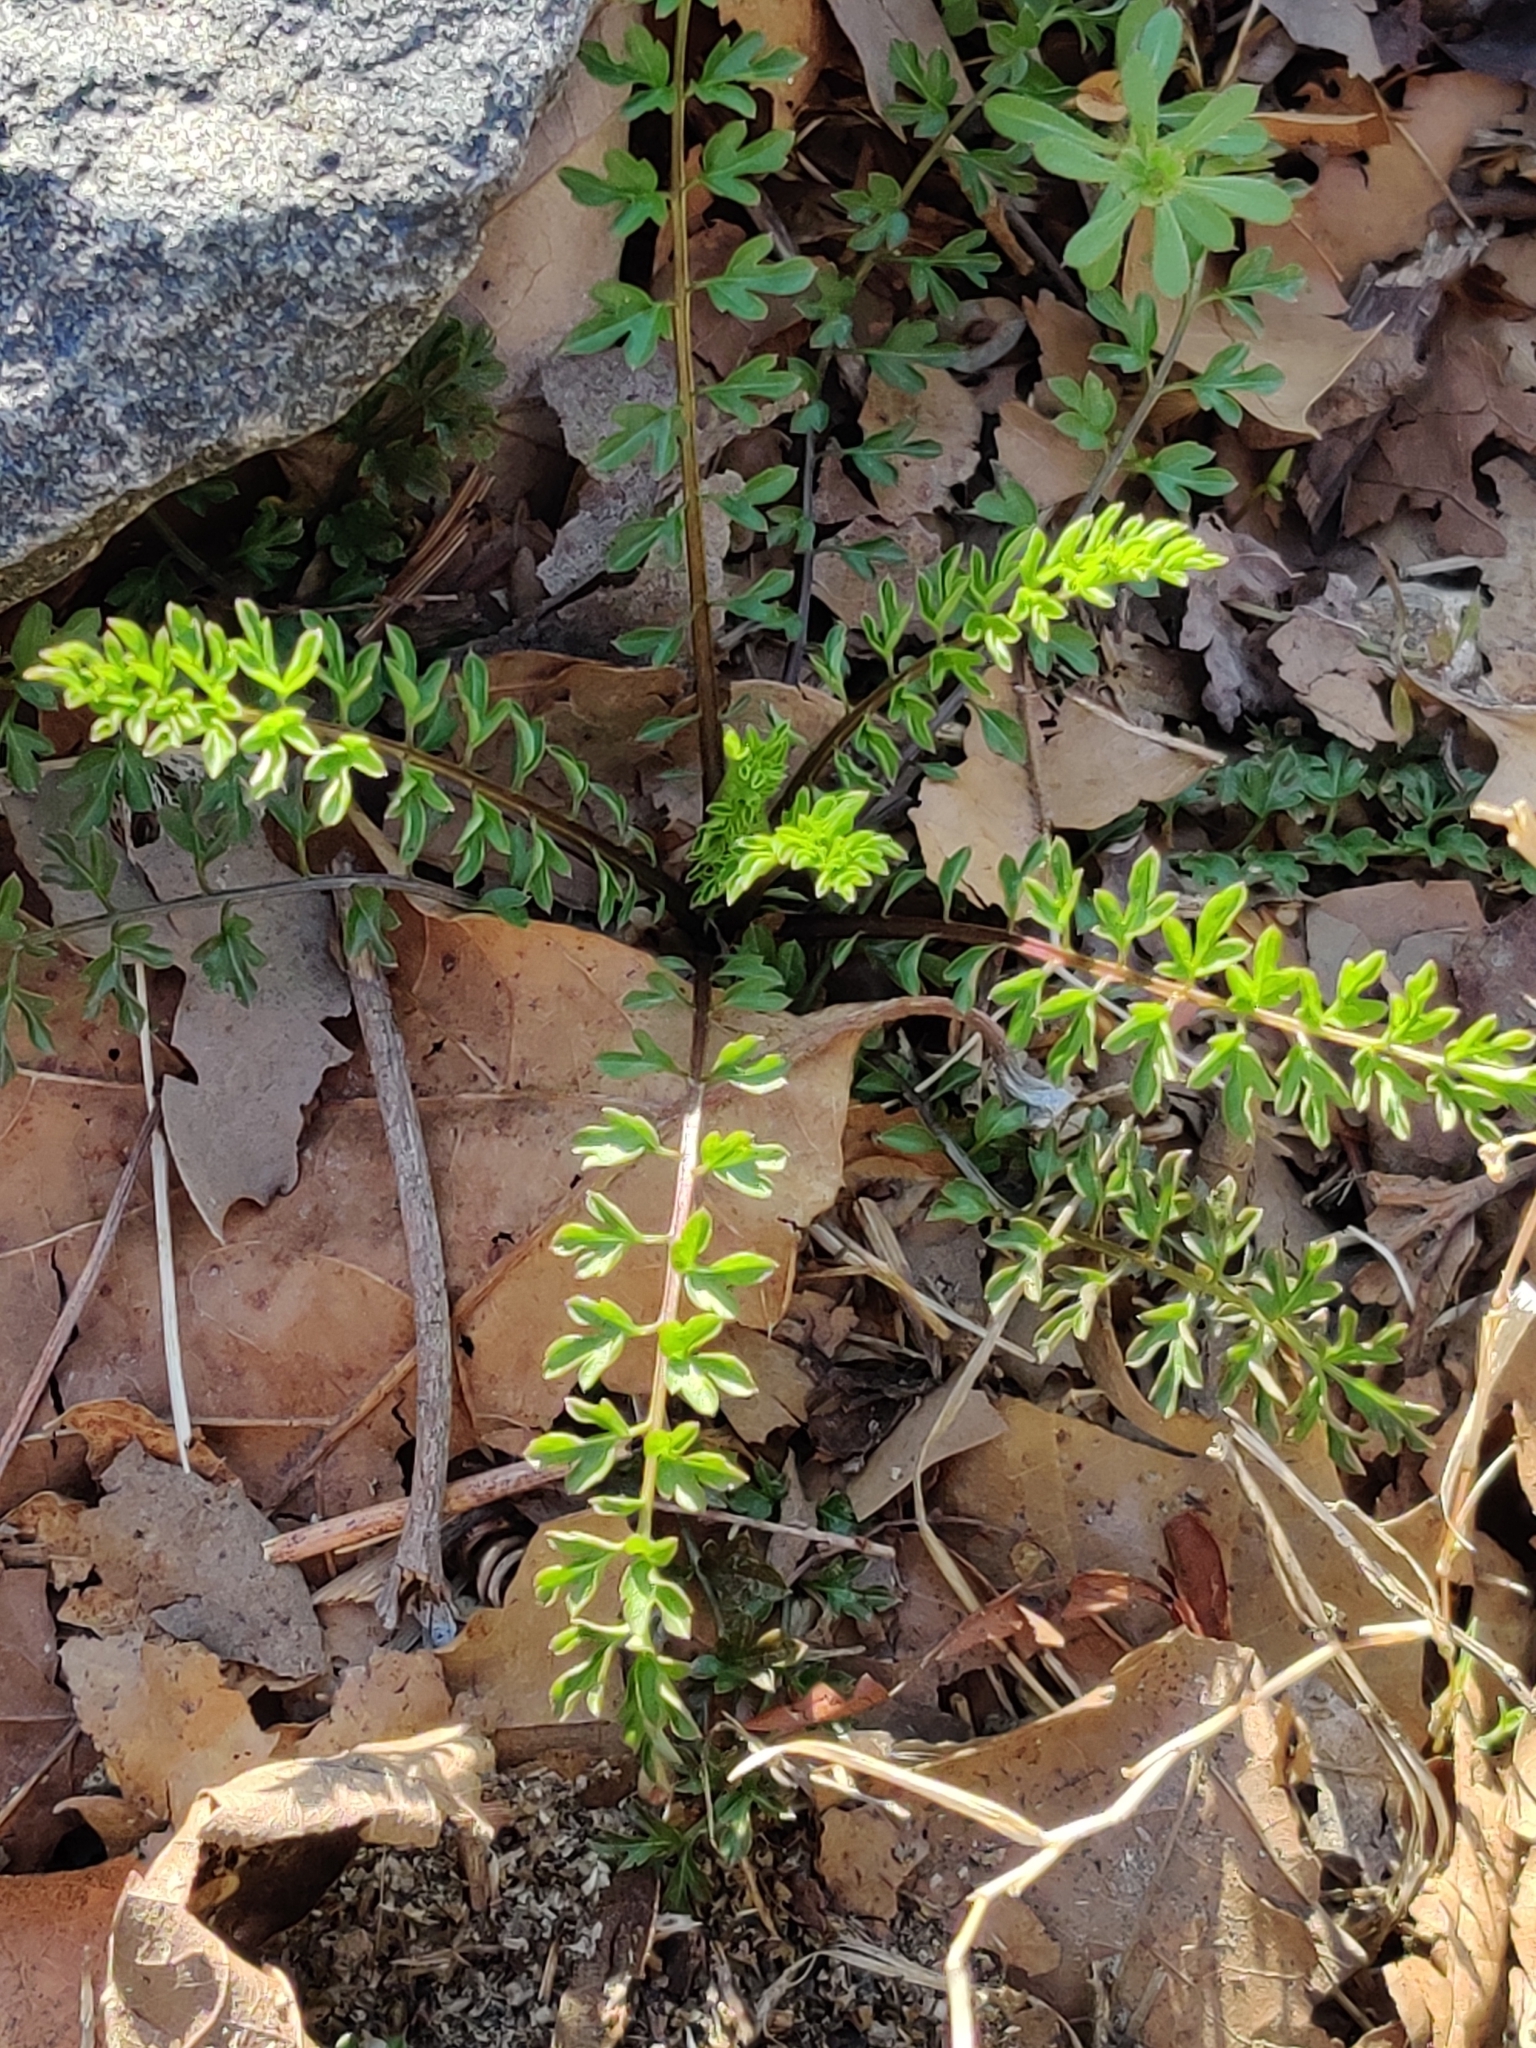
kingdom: Plantae
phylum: Tracheophyta
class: Magnoliopsida
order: Brassicales
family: Brassicaceae
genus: Cardamine
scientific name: Cardamine impatiens
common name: Narrow-leaved bitter-cress
